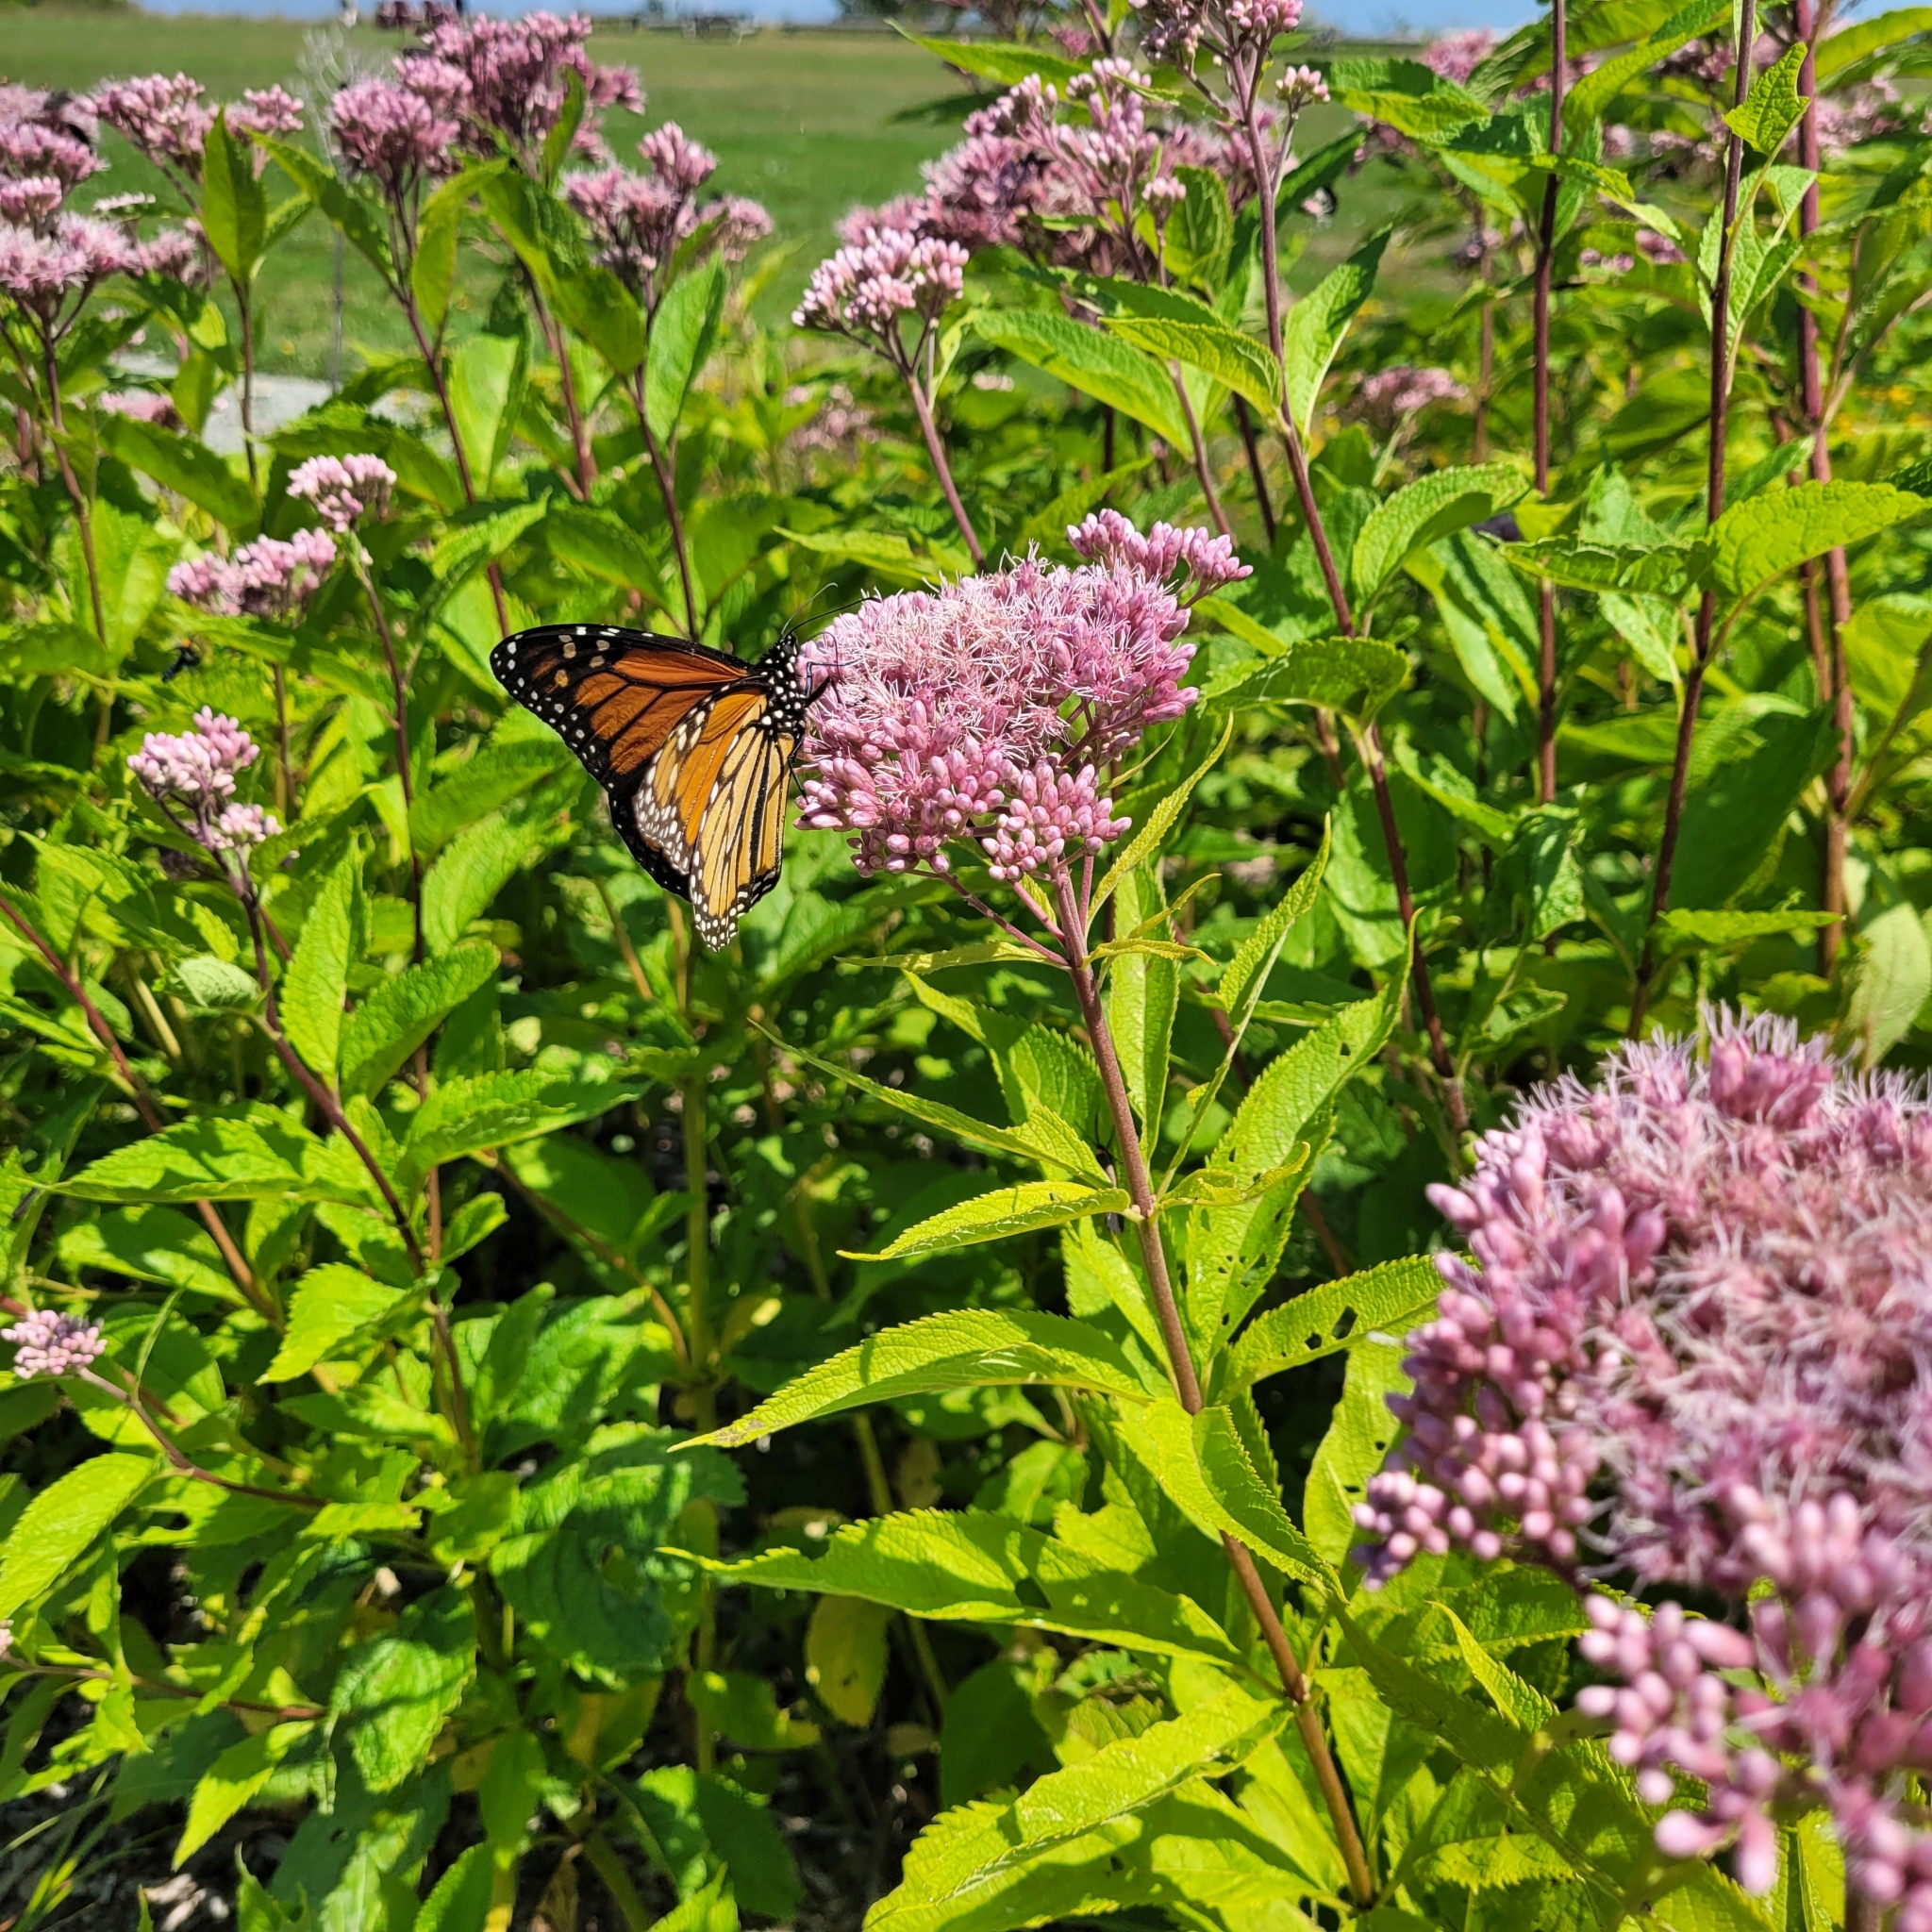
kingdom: Animalia
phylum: Arthropoda
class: Insecta
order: Lepidoptera
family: Nymphalidae
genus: Danaus
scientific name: Danaus plexippus
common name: Monarch
